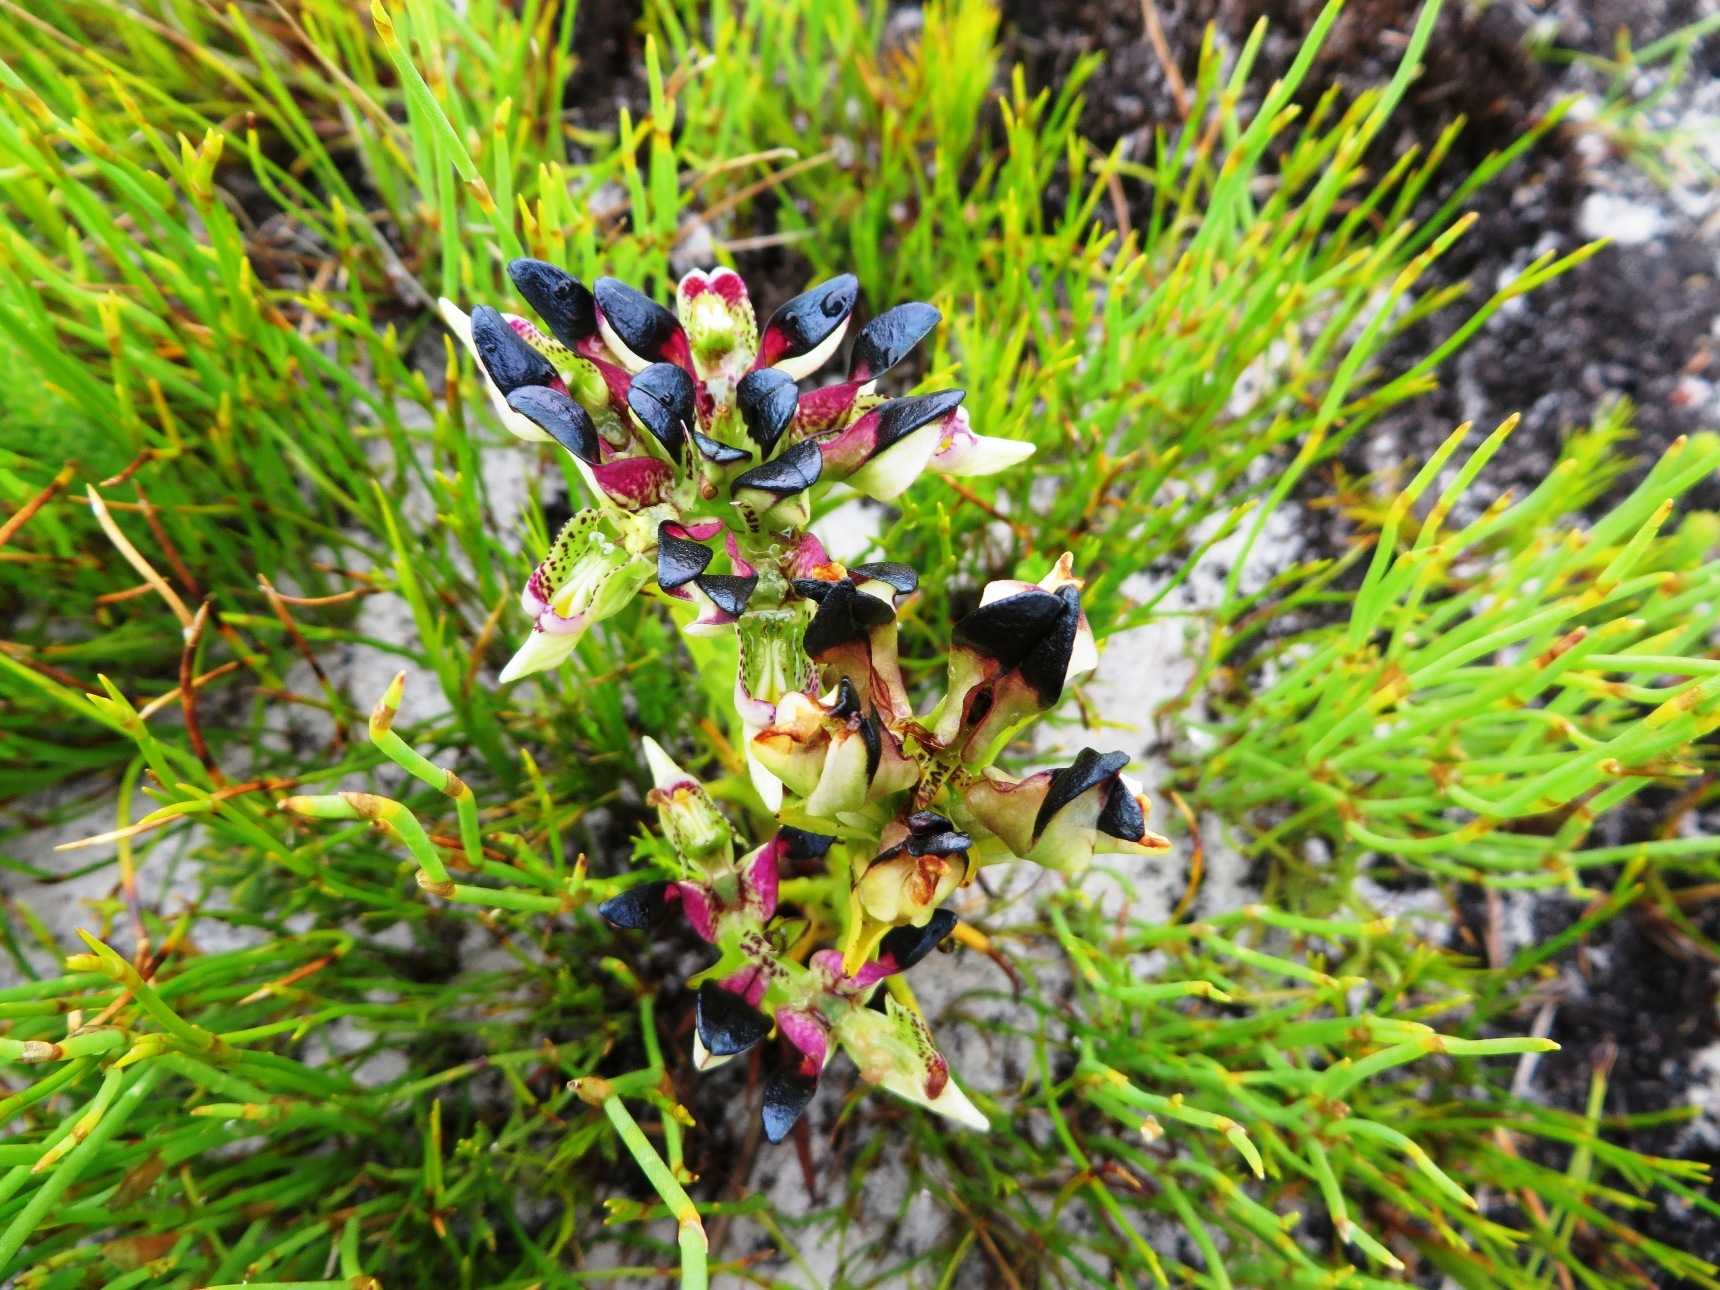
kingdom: Plantae
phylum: Tracheophyta
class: Liliopsida
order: Asparagales
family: Orchidaceae
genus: Disa
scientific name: Disa atricapilla
